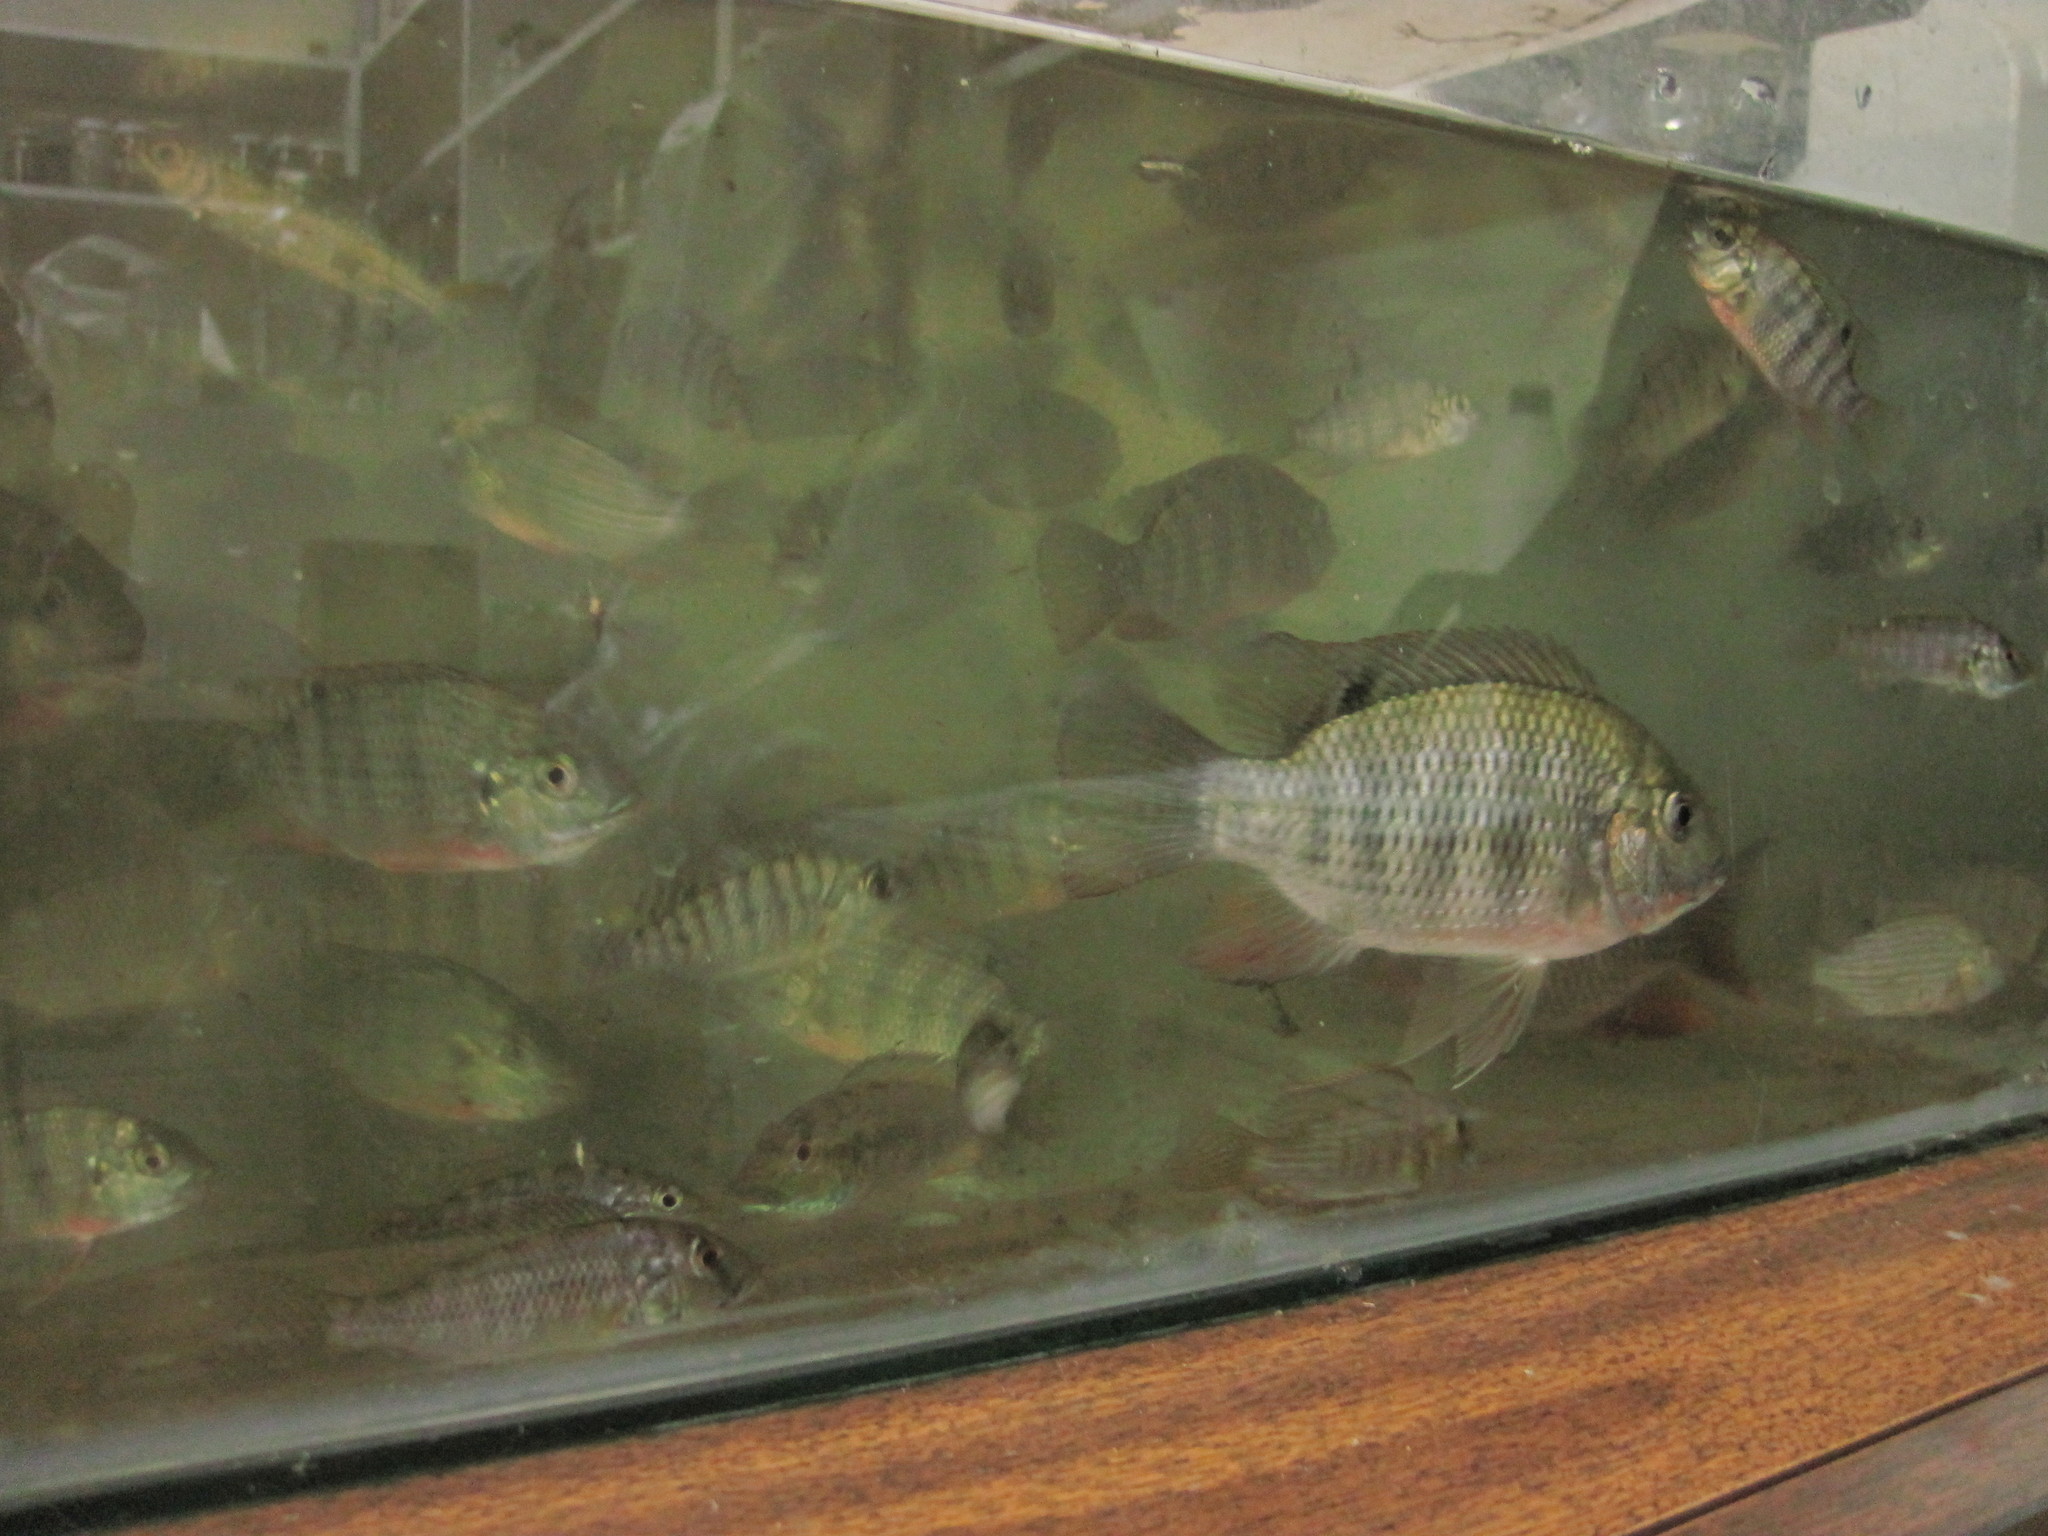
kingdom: Animalia
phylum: Chordata
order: Perciformes
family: Cichlidae
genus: Coptodon
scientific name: Coptodon rendalli
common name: Redbreast tilapia
